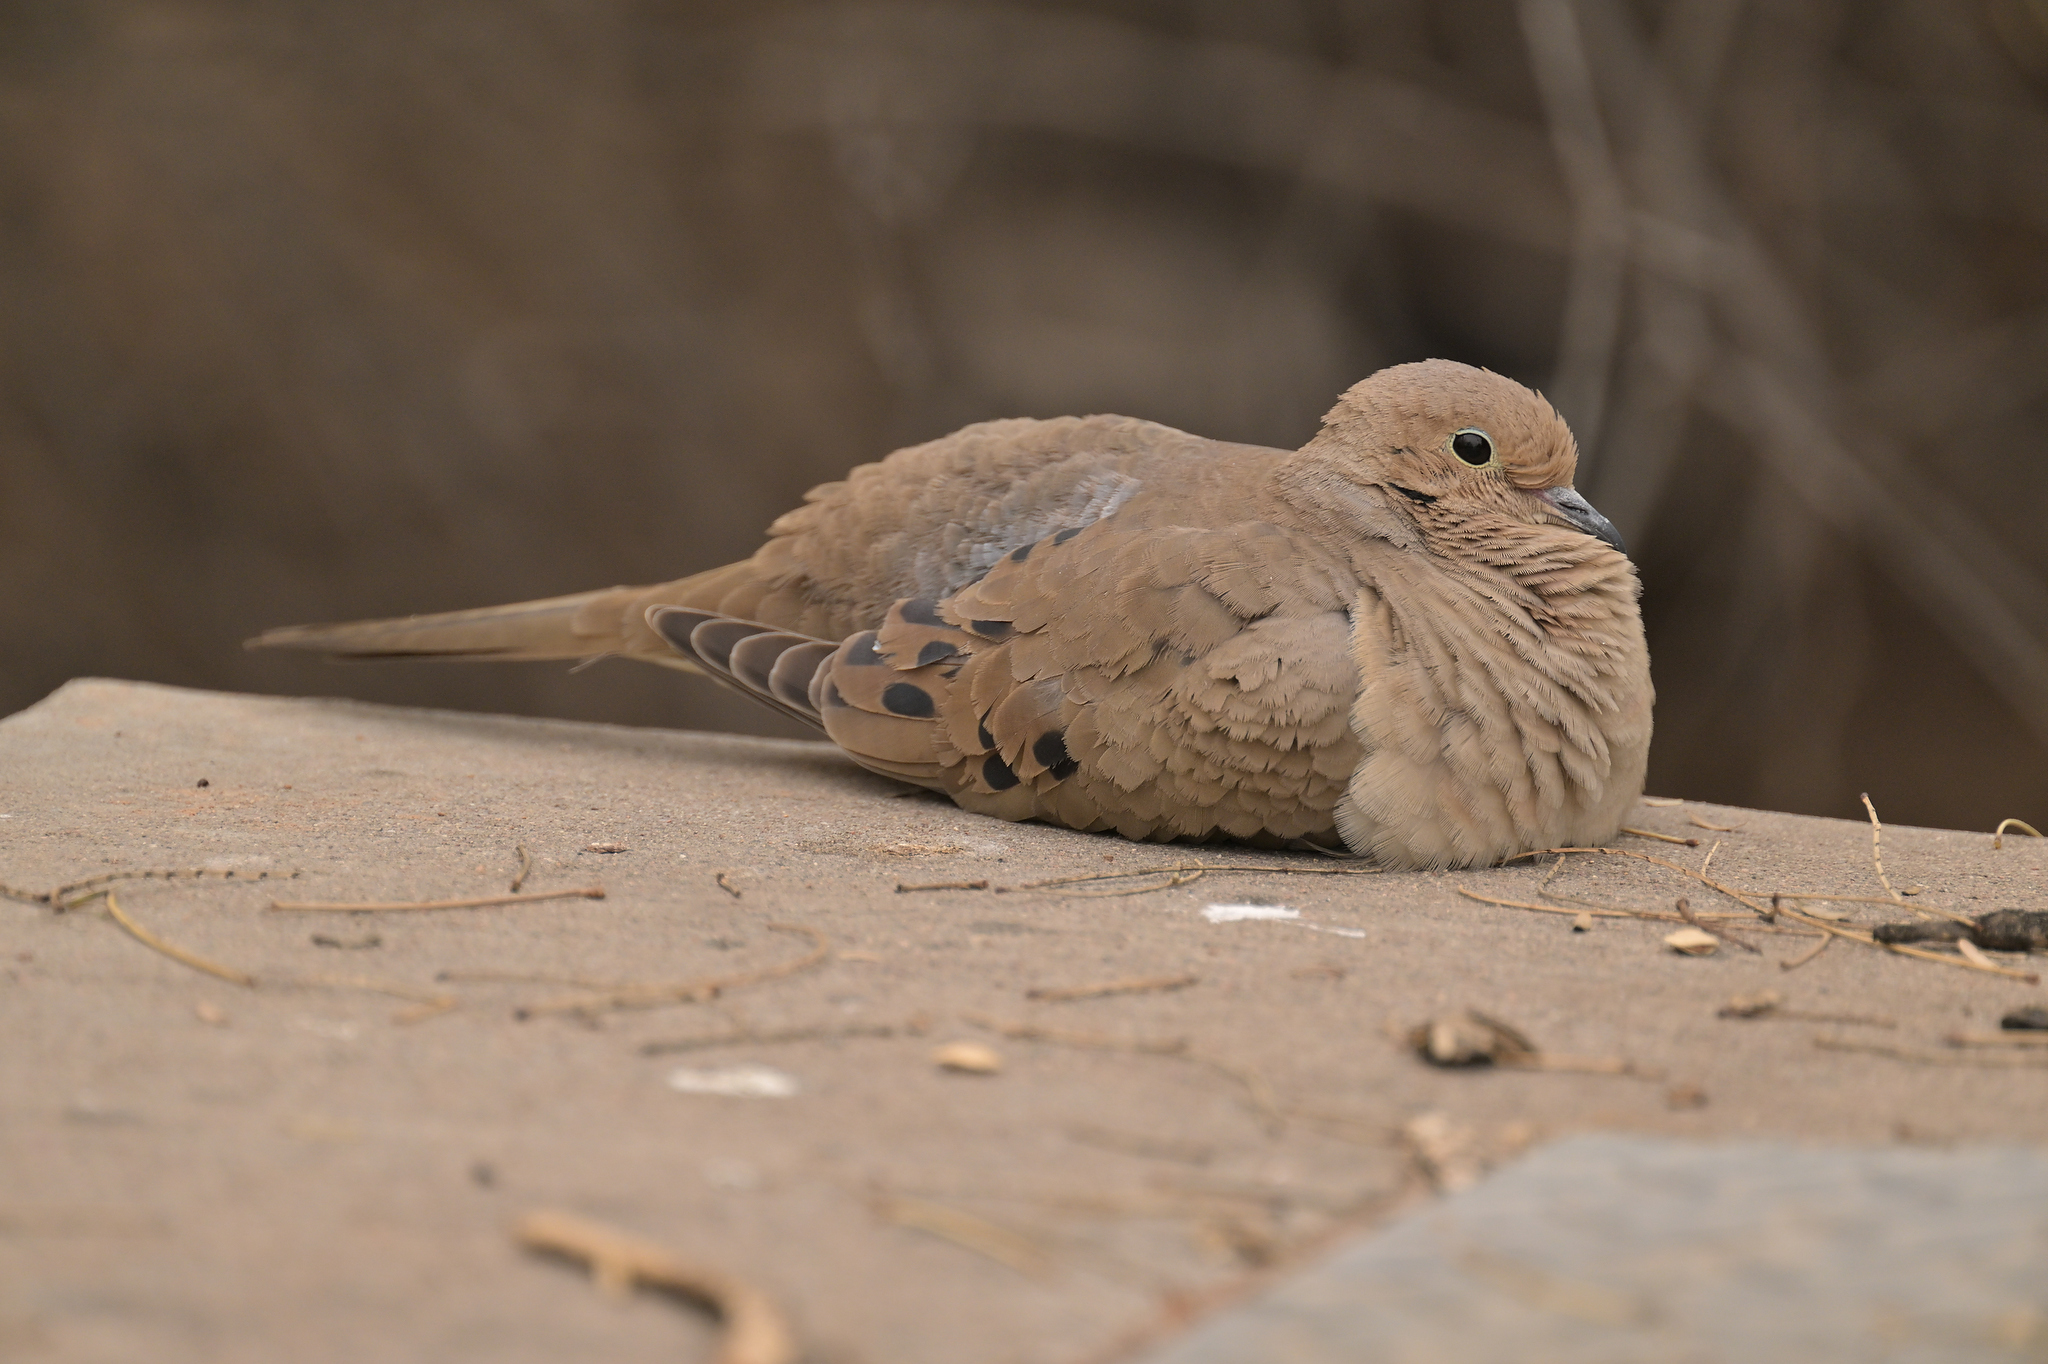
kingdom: Animalia
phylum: Chordata
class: Aves
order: Columbiformes
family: Columbidae
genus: Zenaida
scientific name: Zenaida macroura
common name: Mourning dove
